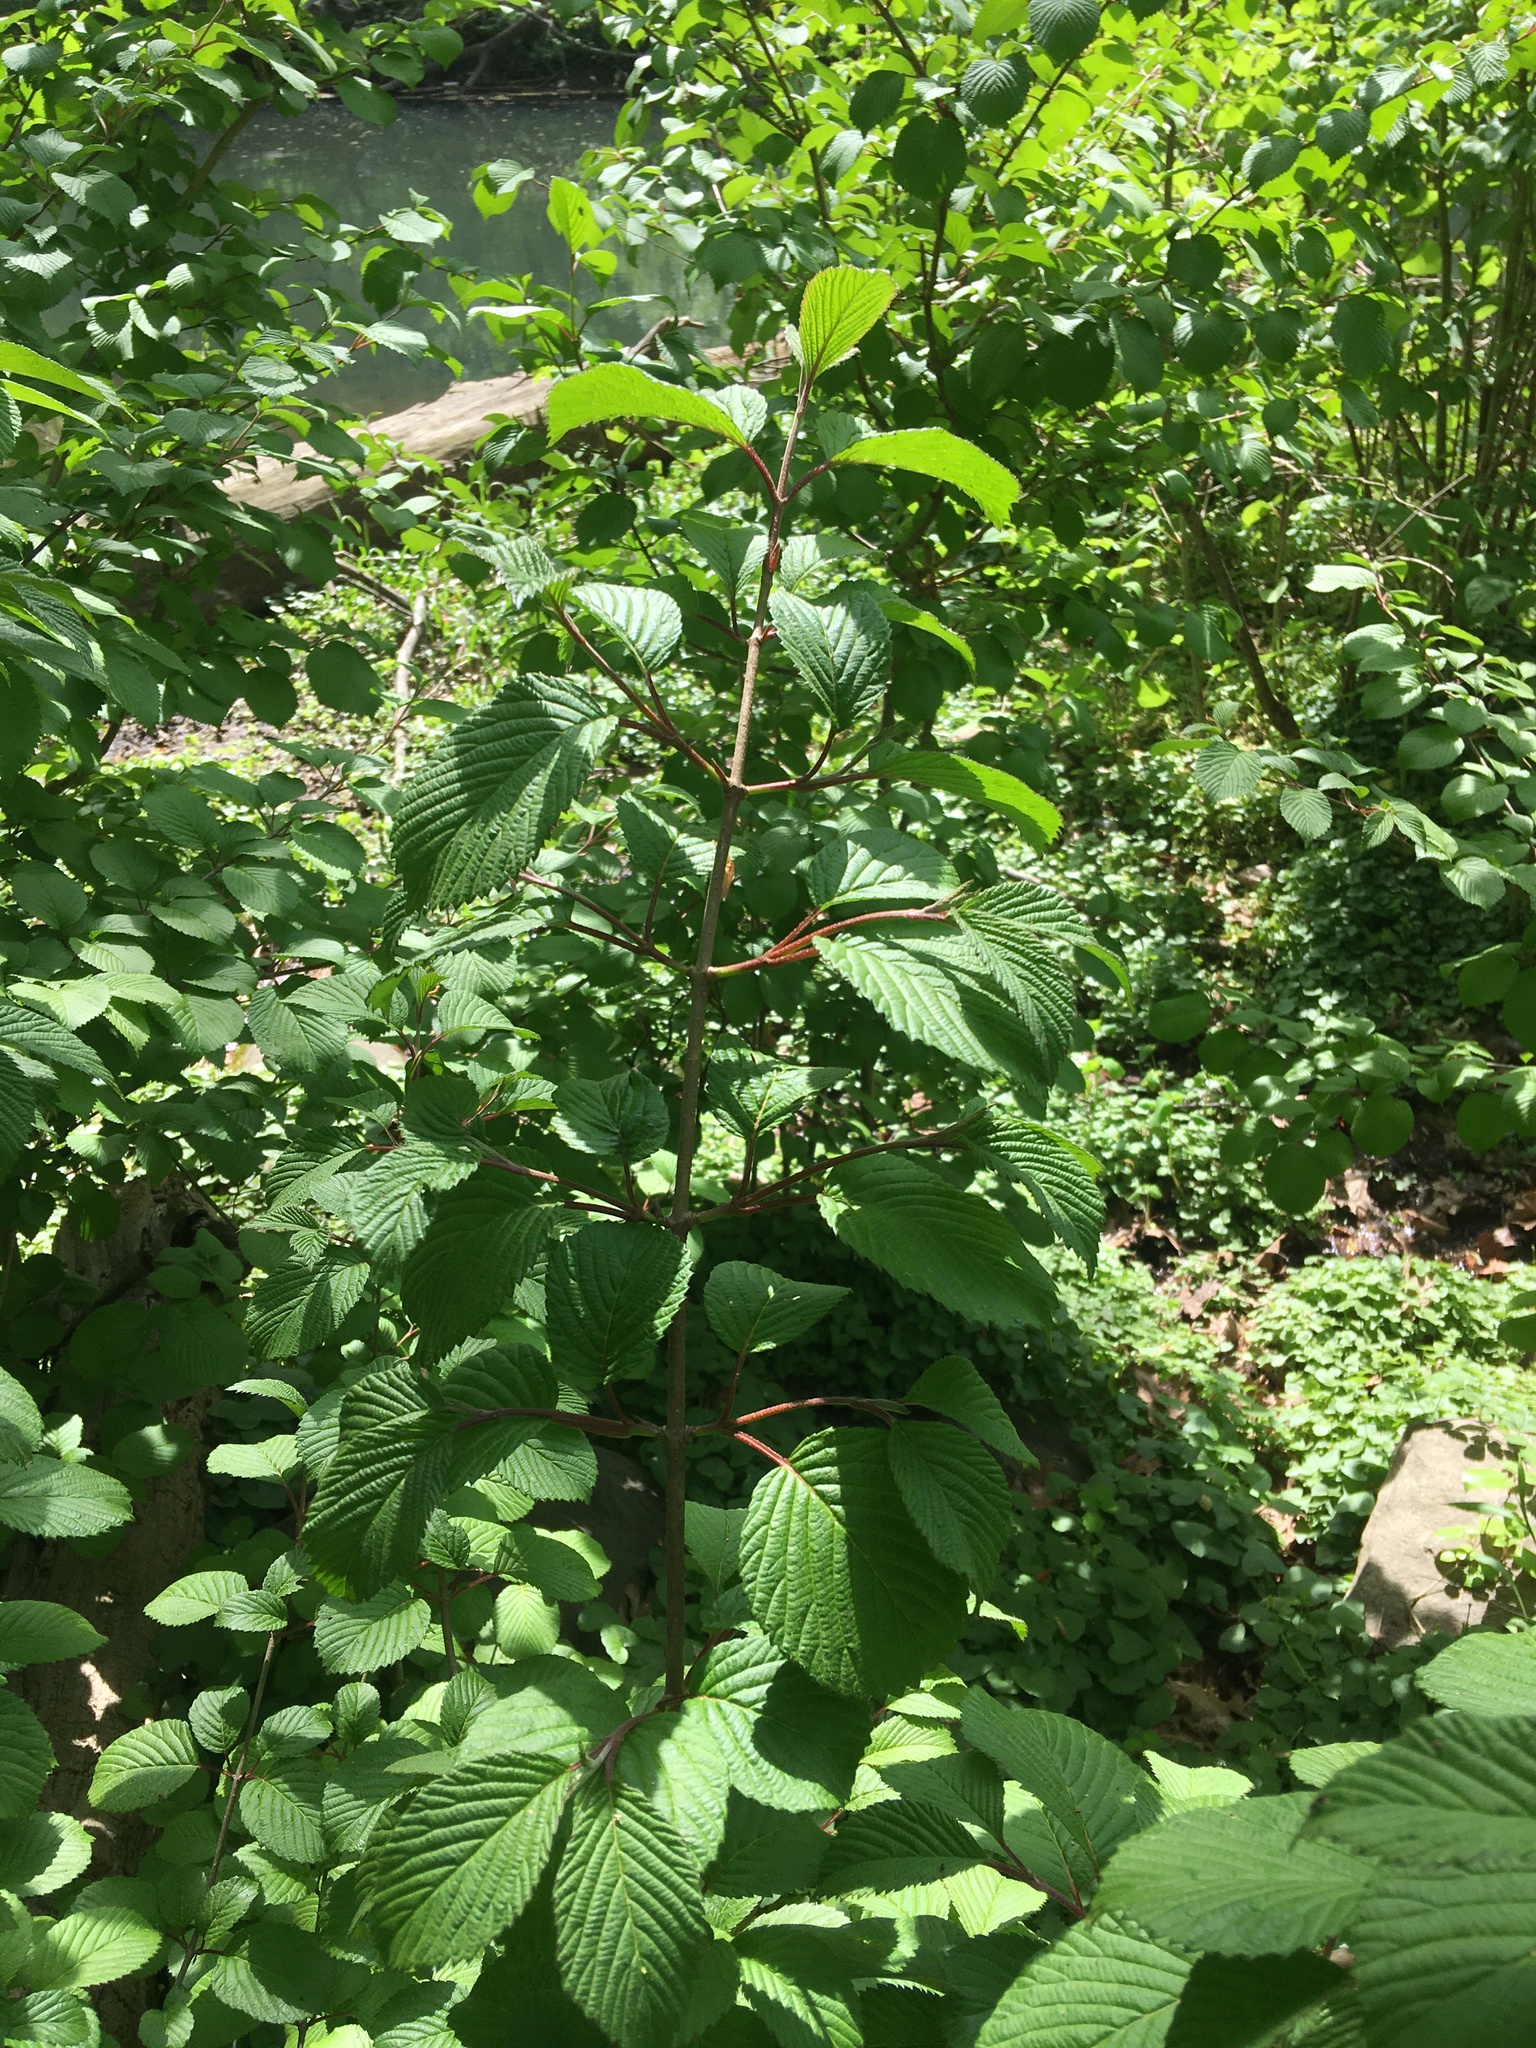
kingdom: Plantae
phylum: Tracheophyta
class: Magnoliopsida
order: Dipsacales
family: Viburnaceae
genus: Viburnum
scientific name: Viburnum plicatum
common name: Japanese snowball
